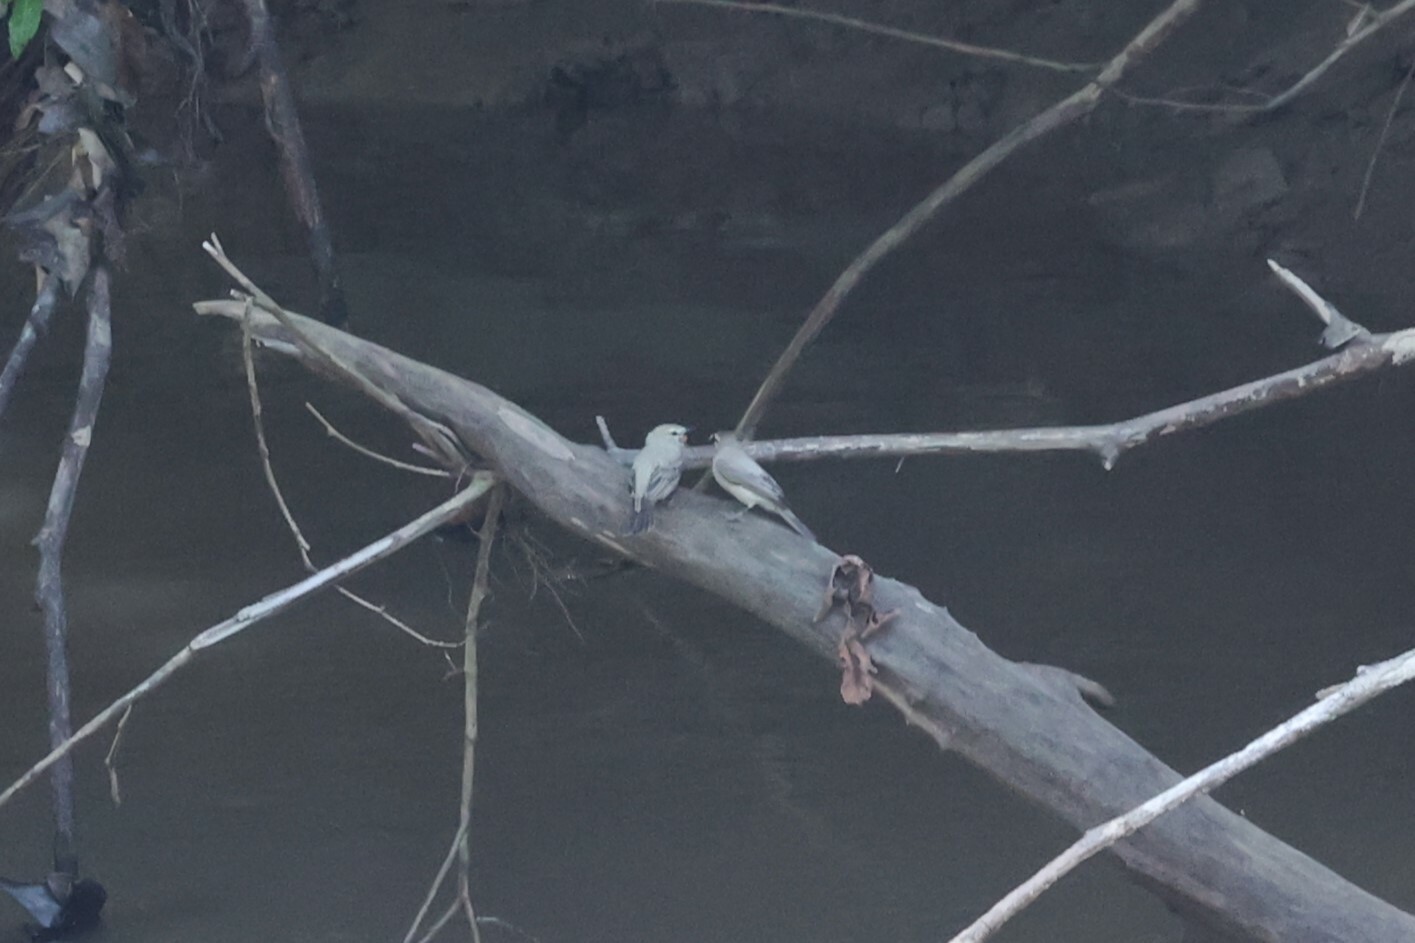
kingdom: Animalia
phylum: Chordata
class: Aves
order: Passeriformes
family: Tyrannidae
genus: Ochthornis
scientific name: Ochthornis littoralis
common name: Drab water tyrant
